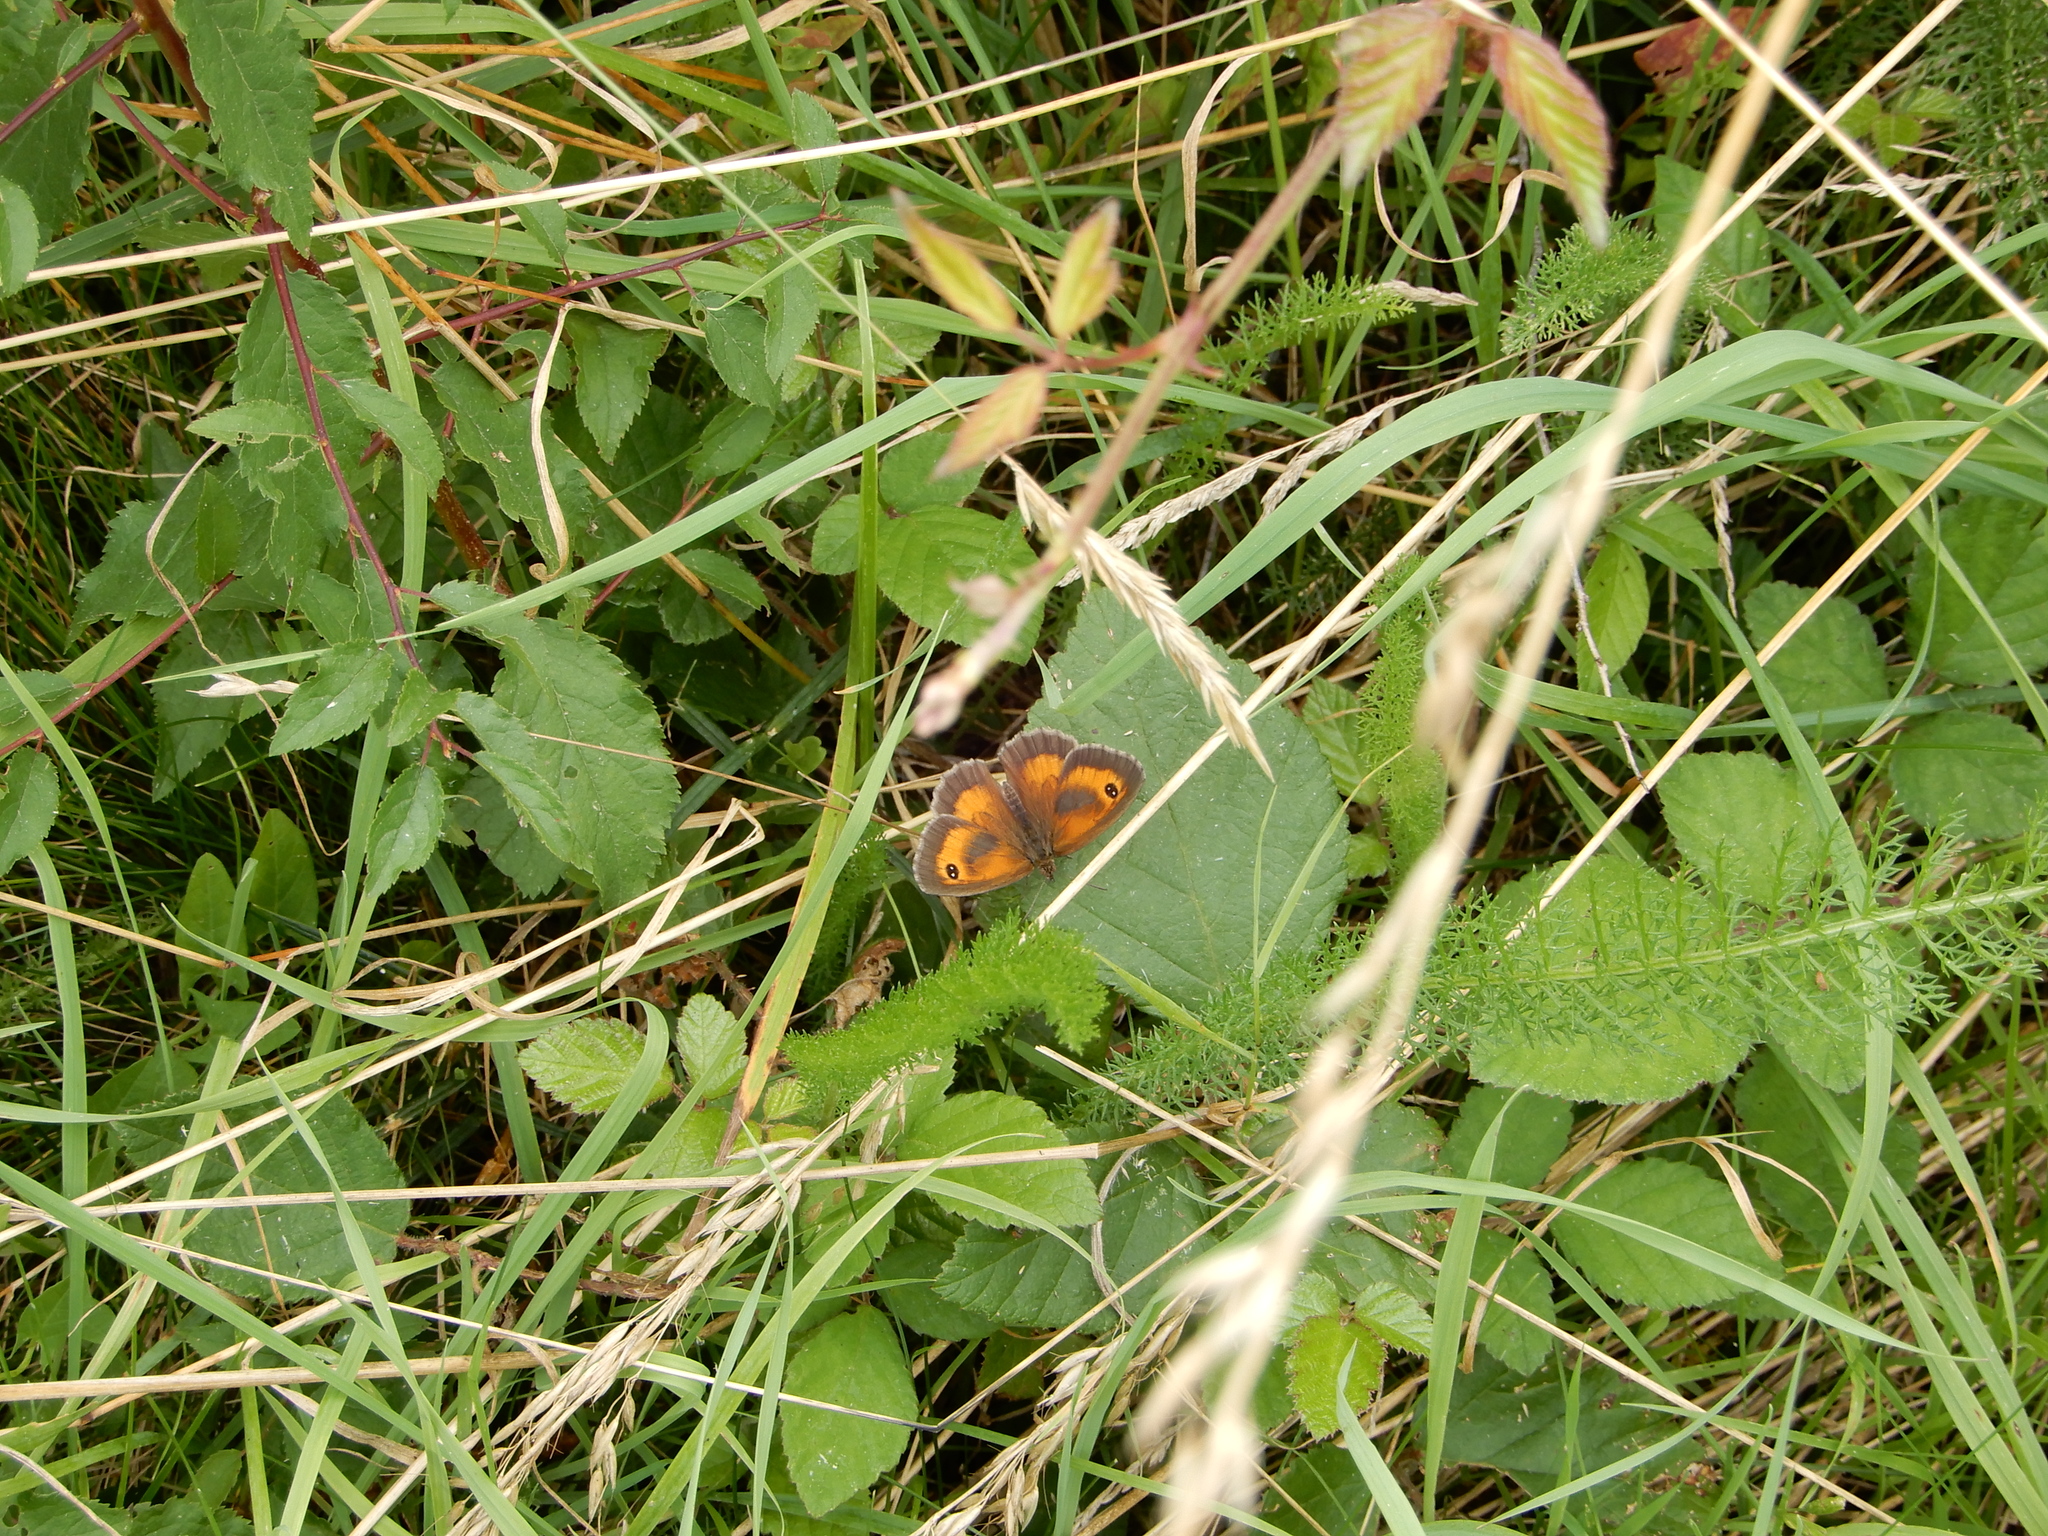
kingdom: Animalia
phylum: Arthropoda
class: Insecta
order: Lepidoptera
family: Nymphalidae
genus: Pyronia
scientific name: Pyronia tithonus
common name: Gatekeeper
